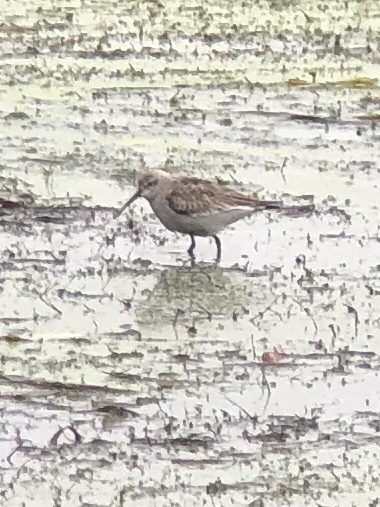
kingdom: Animalia
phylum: Chordata
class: Aves
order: Charadriiformes
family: Scolopacidae
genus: Calidris
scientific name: Calidris ferruginea
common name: Curlew sandpiper
